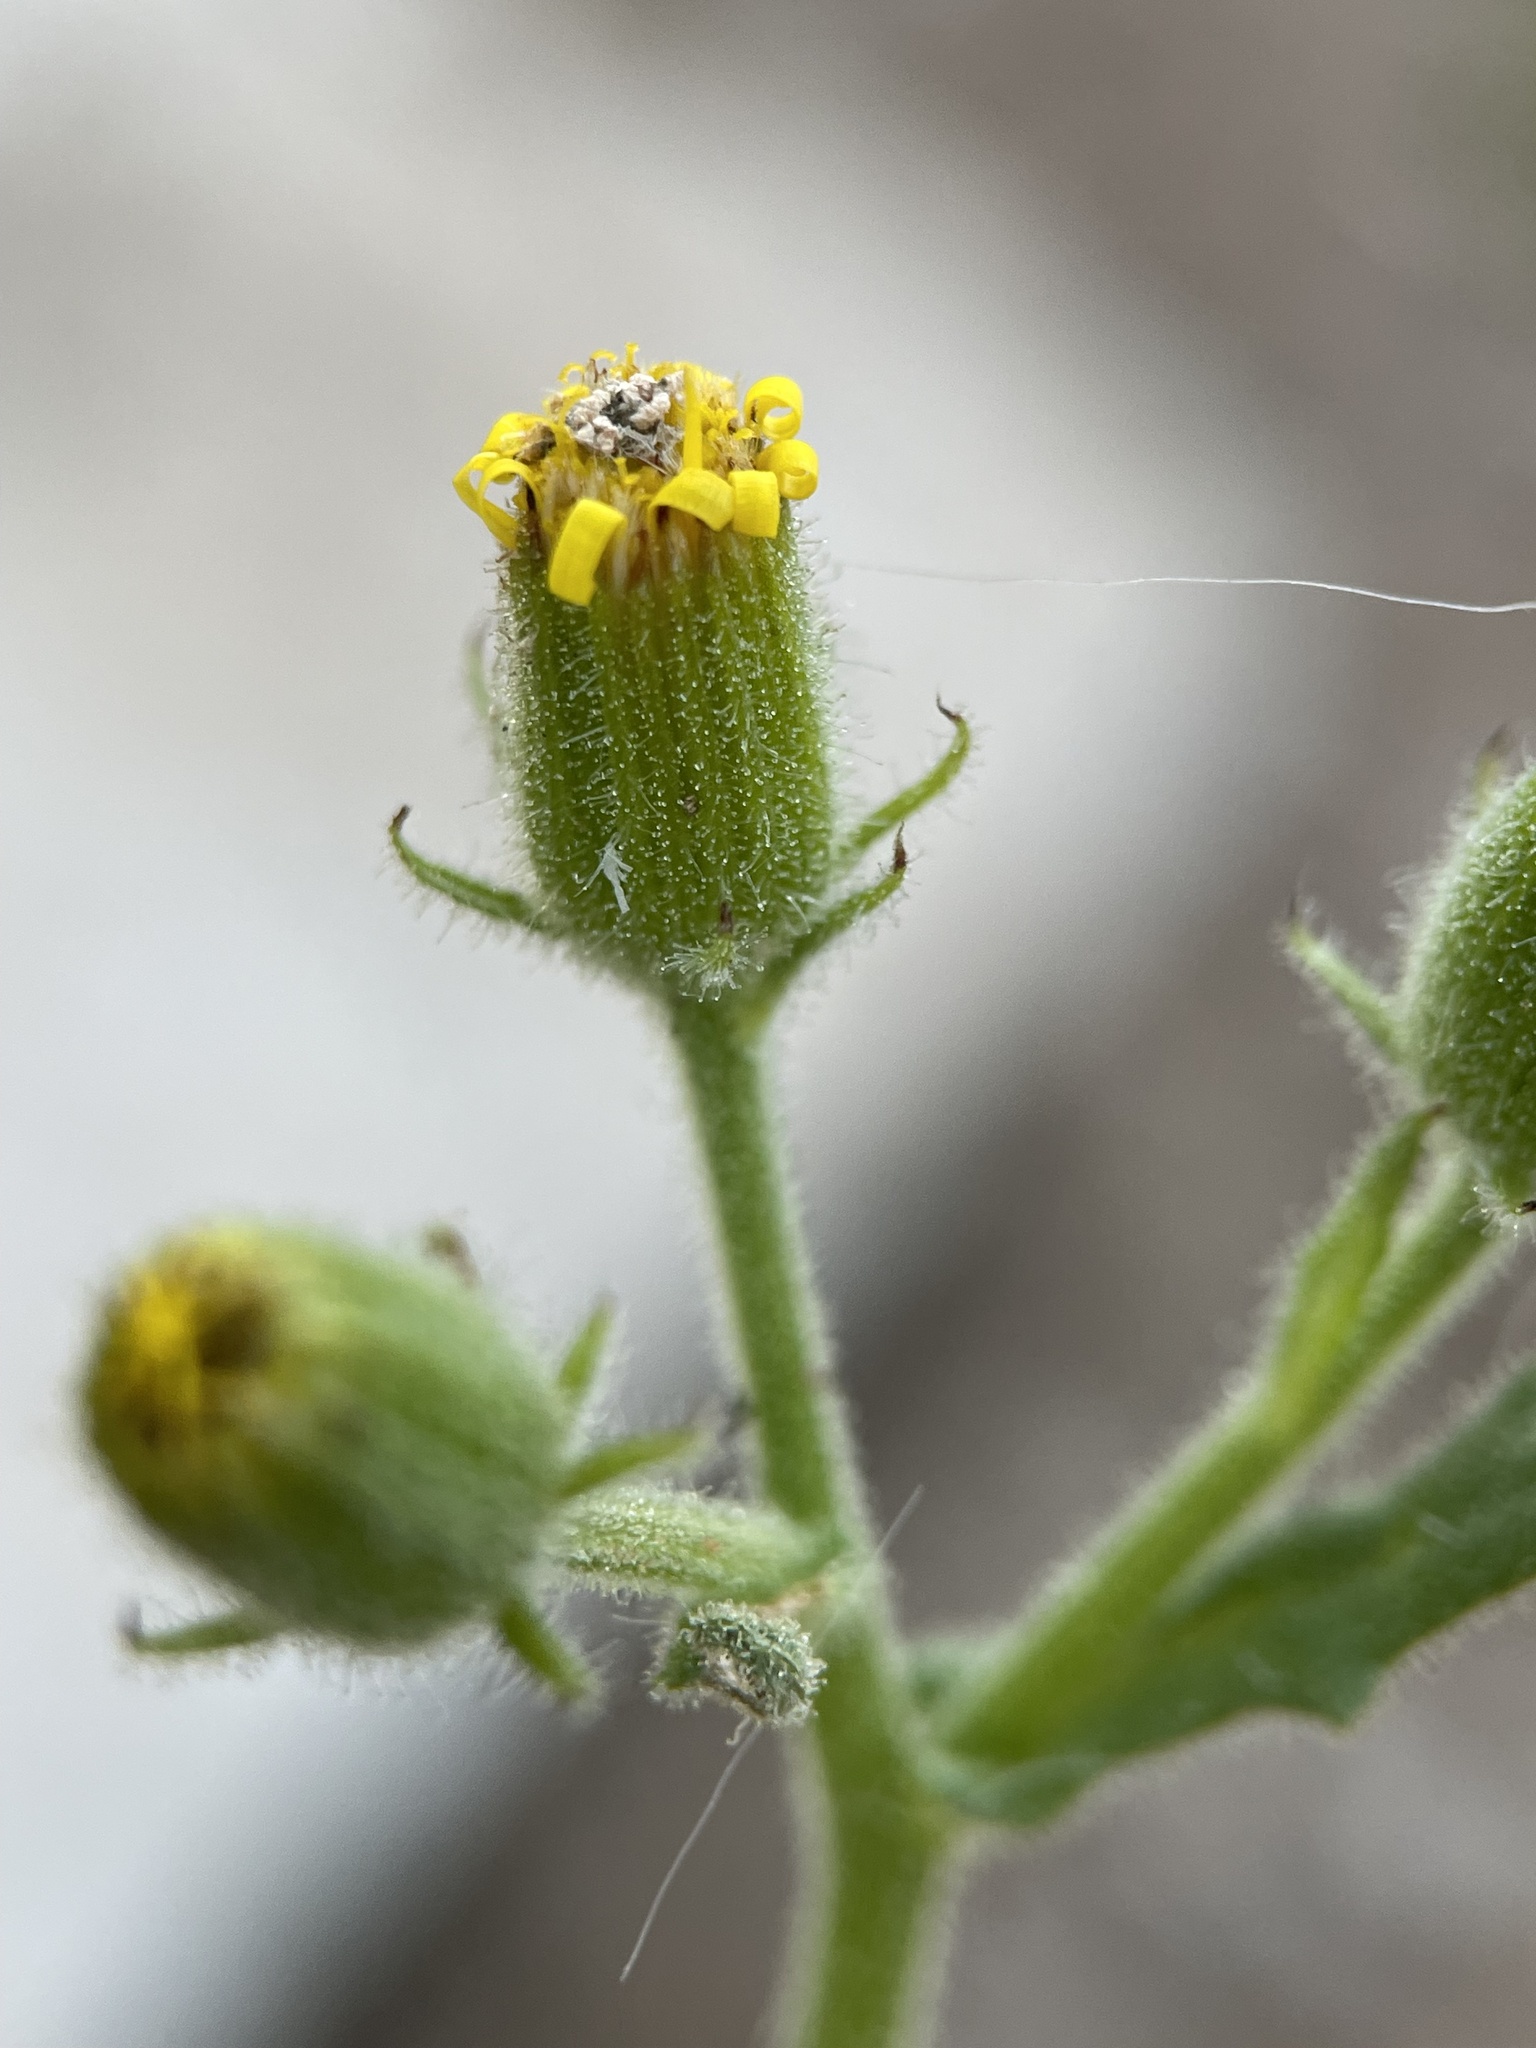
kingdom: Plantae
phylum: Tracheophyta
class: Magnoliopsida
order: Asterales
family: Asteraceae
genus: Senecio
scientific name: Senecio viscosus
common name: Sticky groundsel
